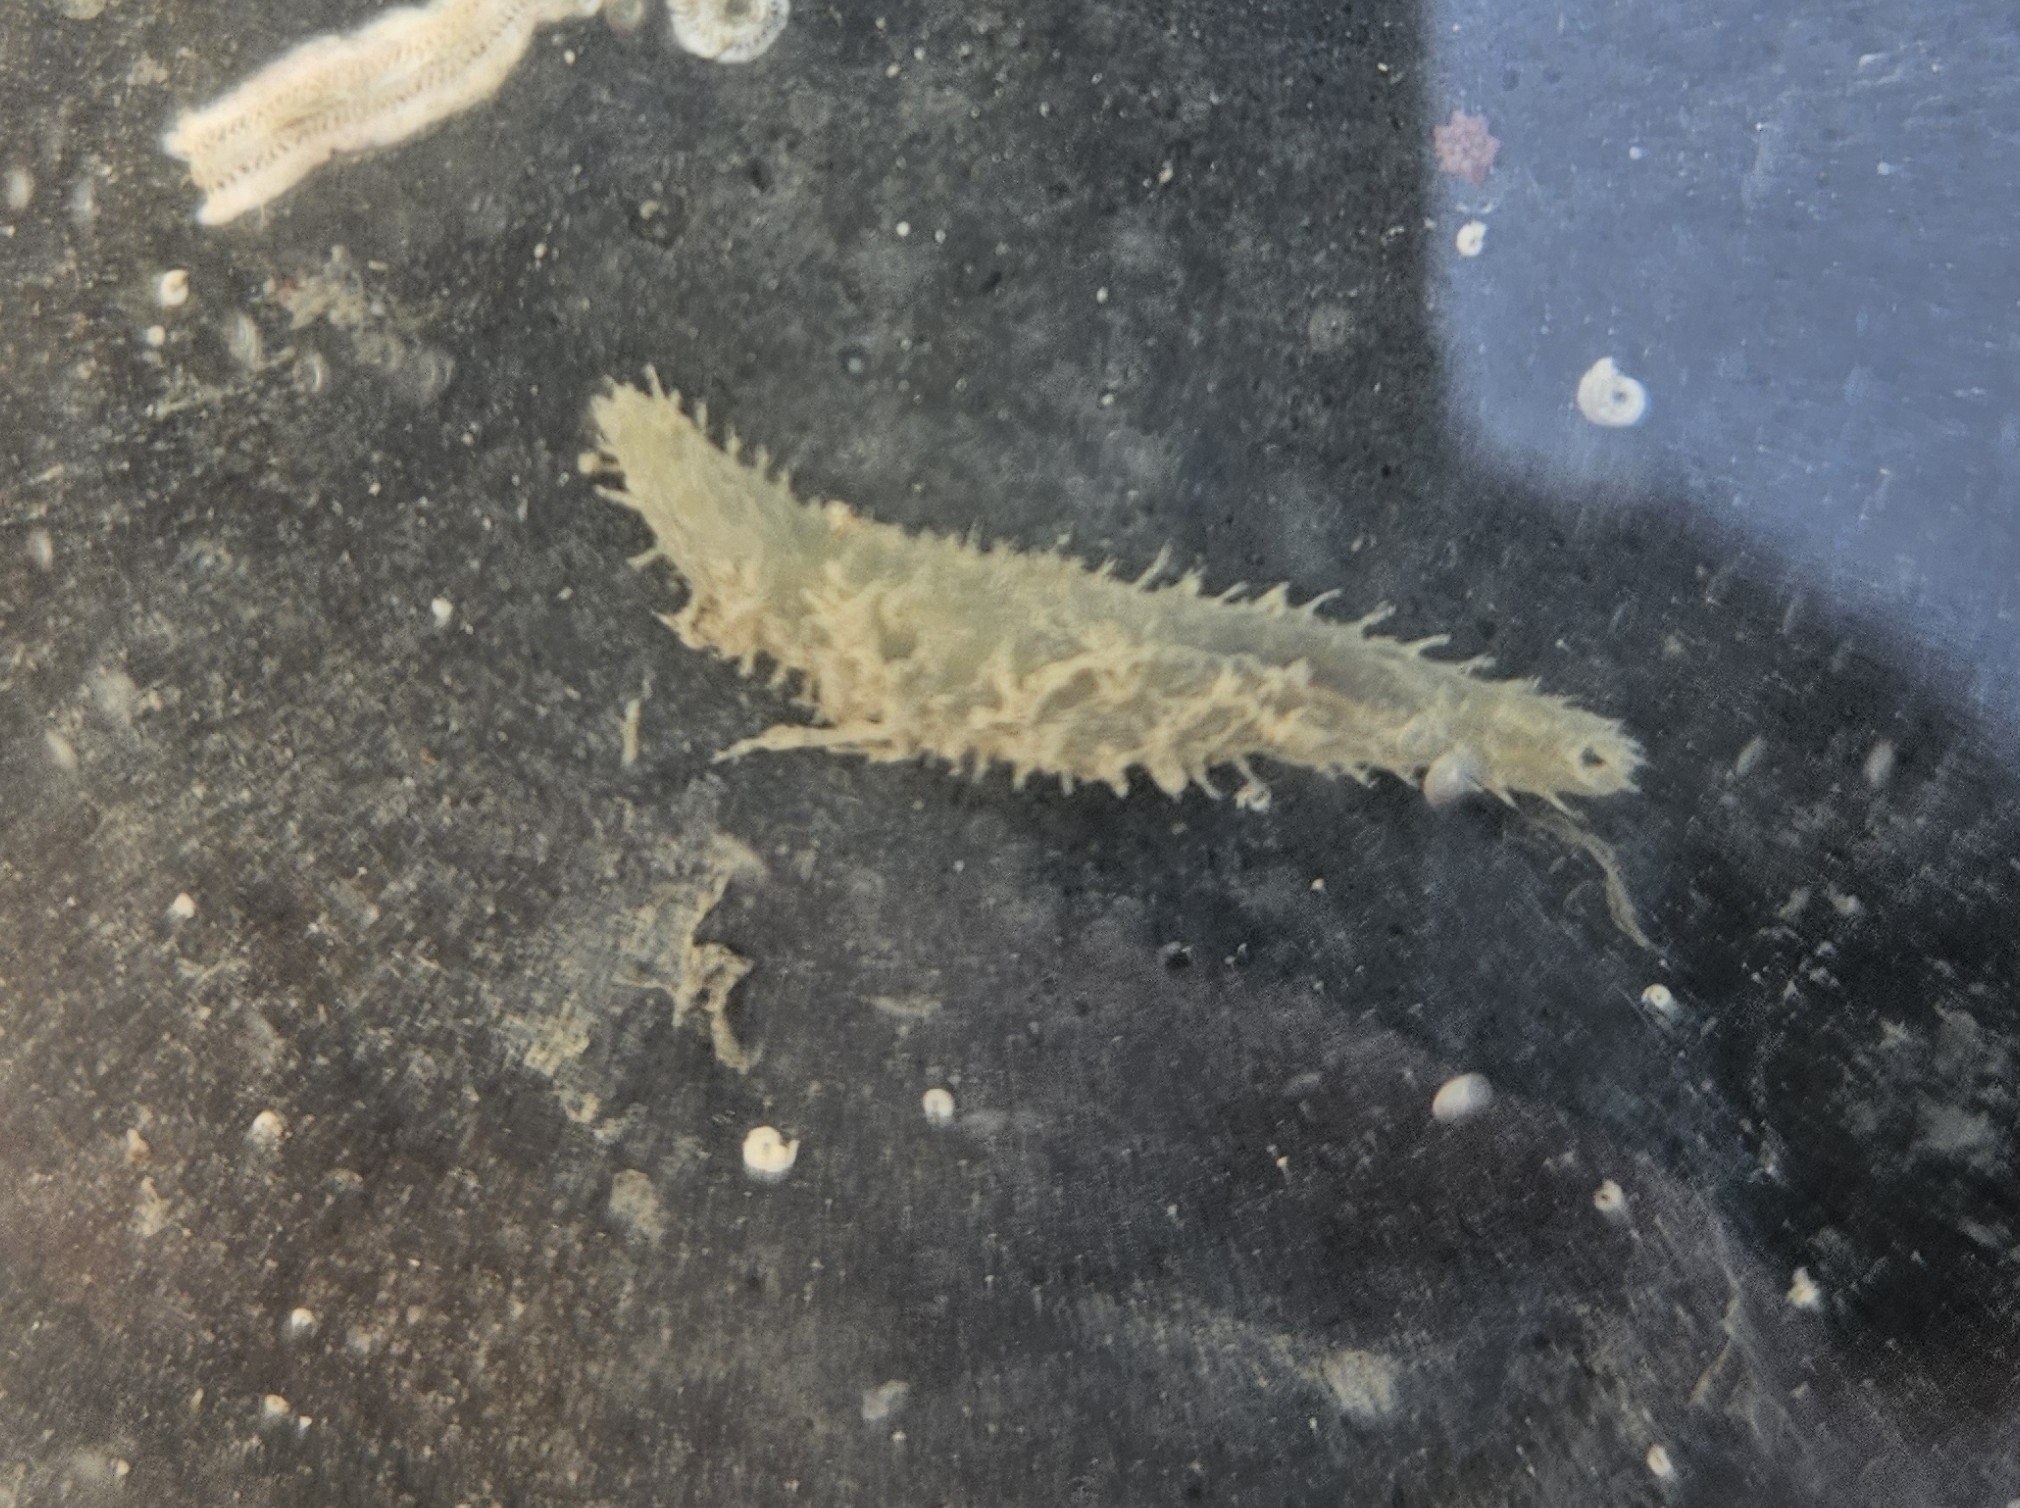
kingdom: Animalia
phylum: Annelida
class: Polychaeta
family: Flabelligeridae
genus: Flabelligera
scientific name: Flabelligera bicolor
